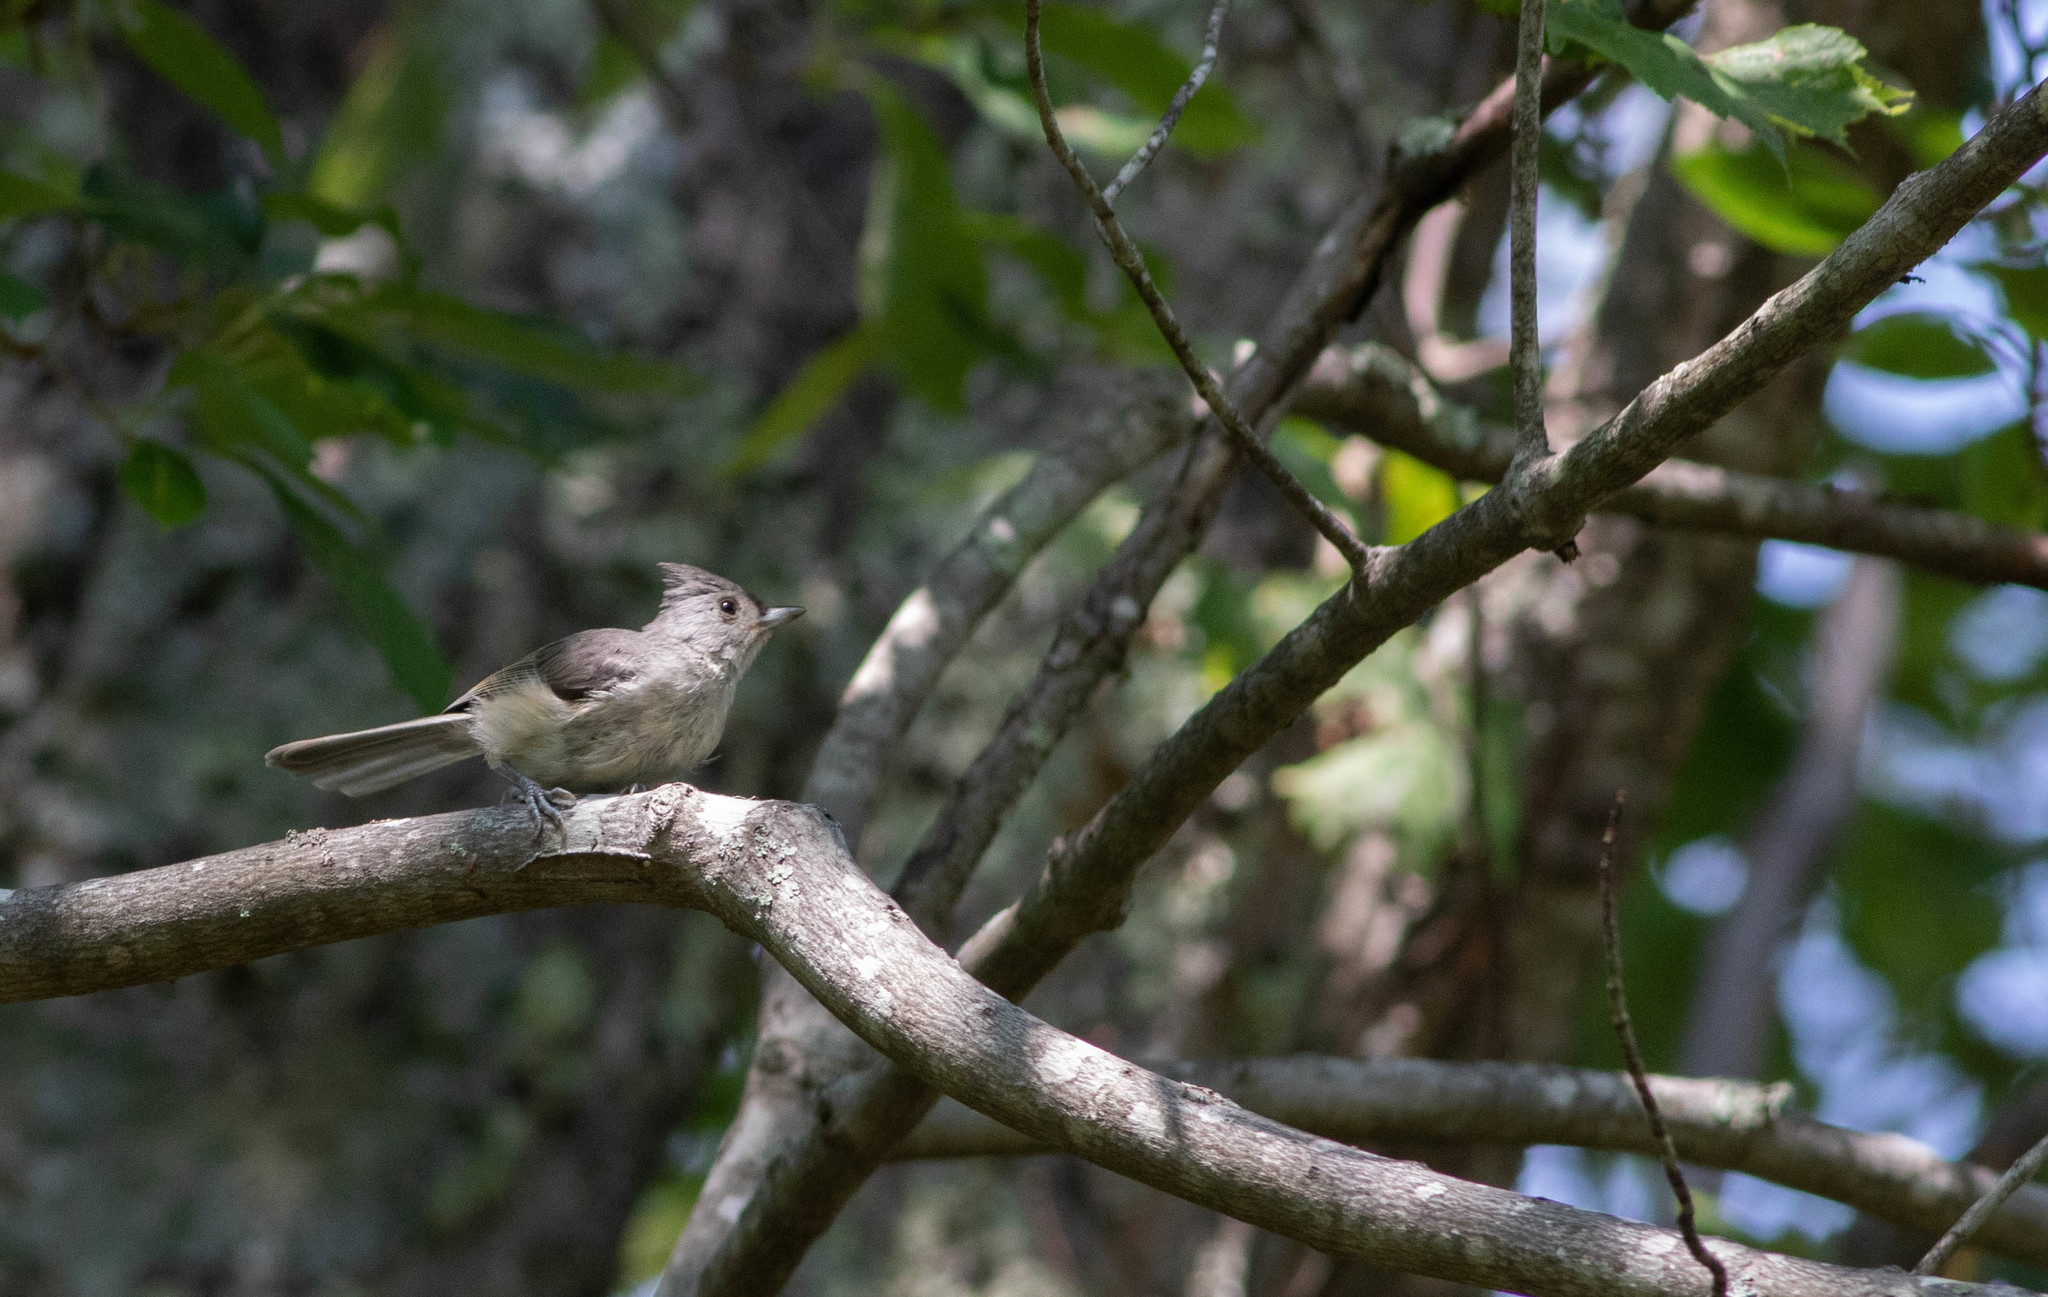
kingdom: Animalia
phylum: Chordata
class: Aves
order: Passeriformes
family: Paridae
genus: Baeolophus
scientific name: Baeolophus bicolor
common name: Tufted titmouse
